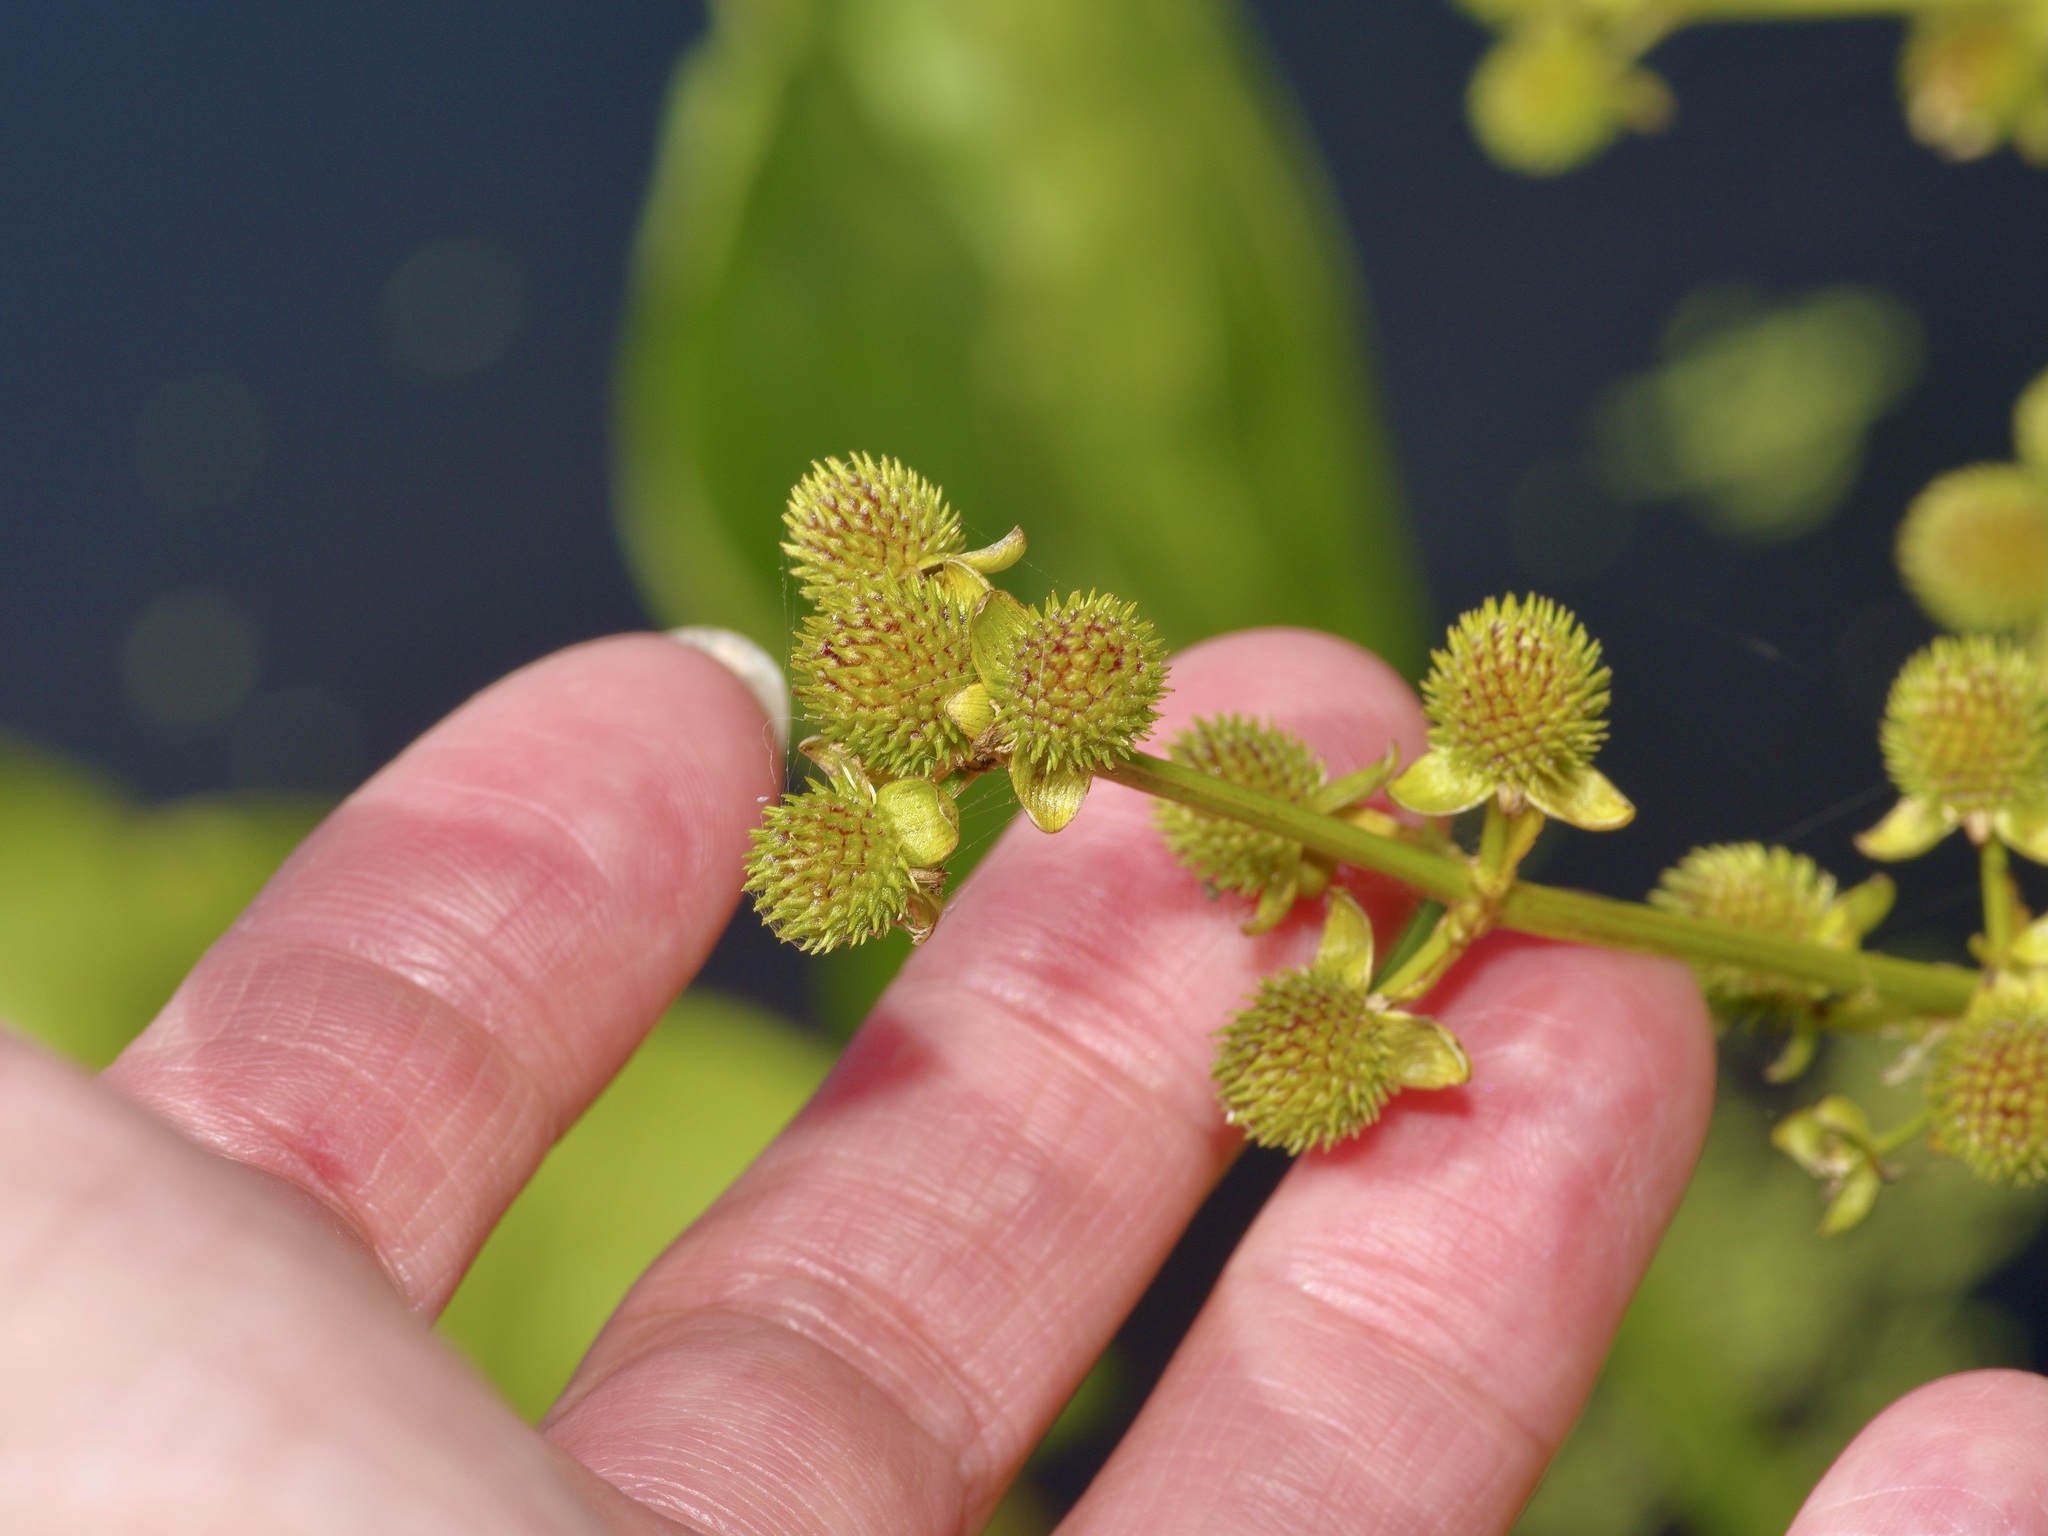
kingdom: Plantae
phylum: Tracheophyta
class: Liliopsida
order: Alismatales
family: Alismataceae
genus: Sagittaria
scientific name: Sagittaria platyphylla
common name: Broad-leaf arrowhead
